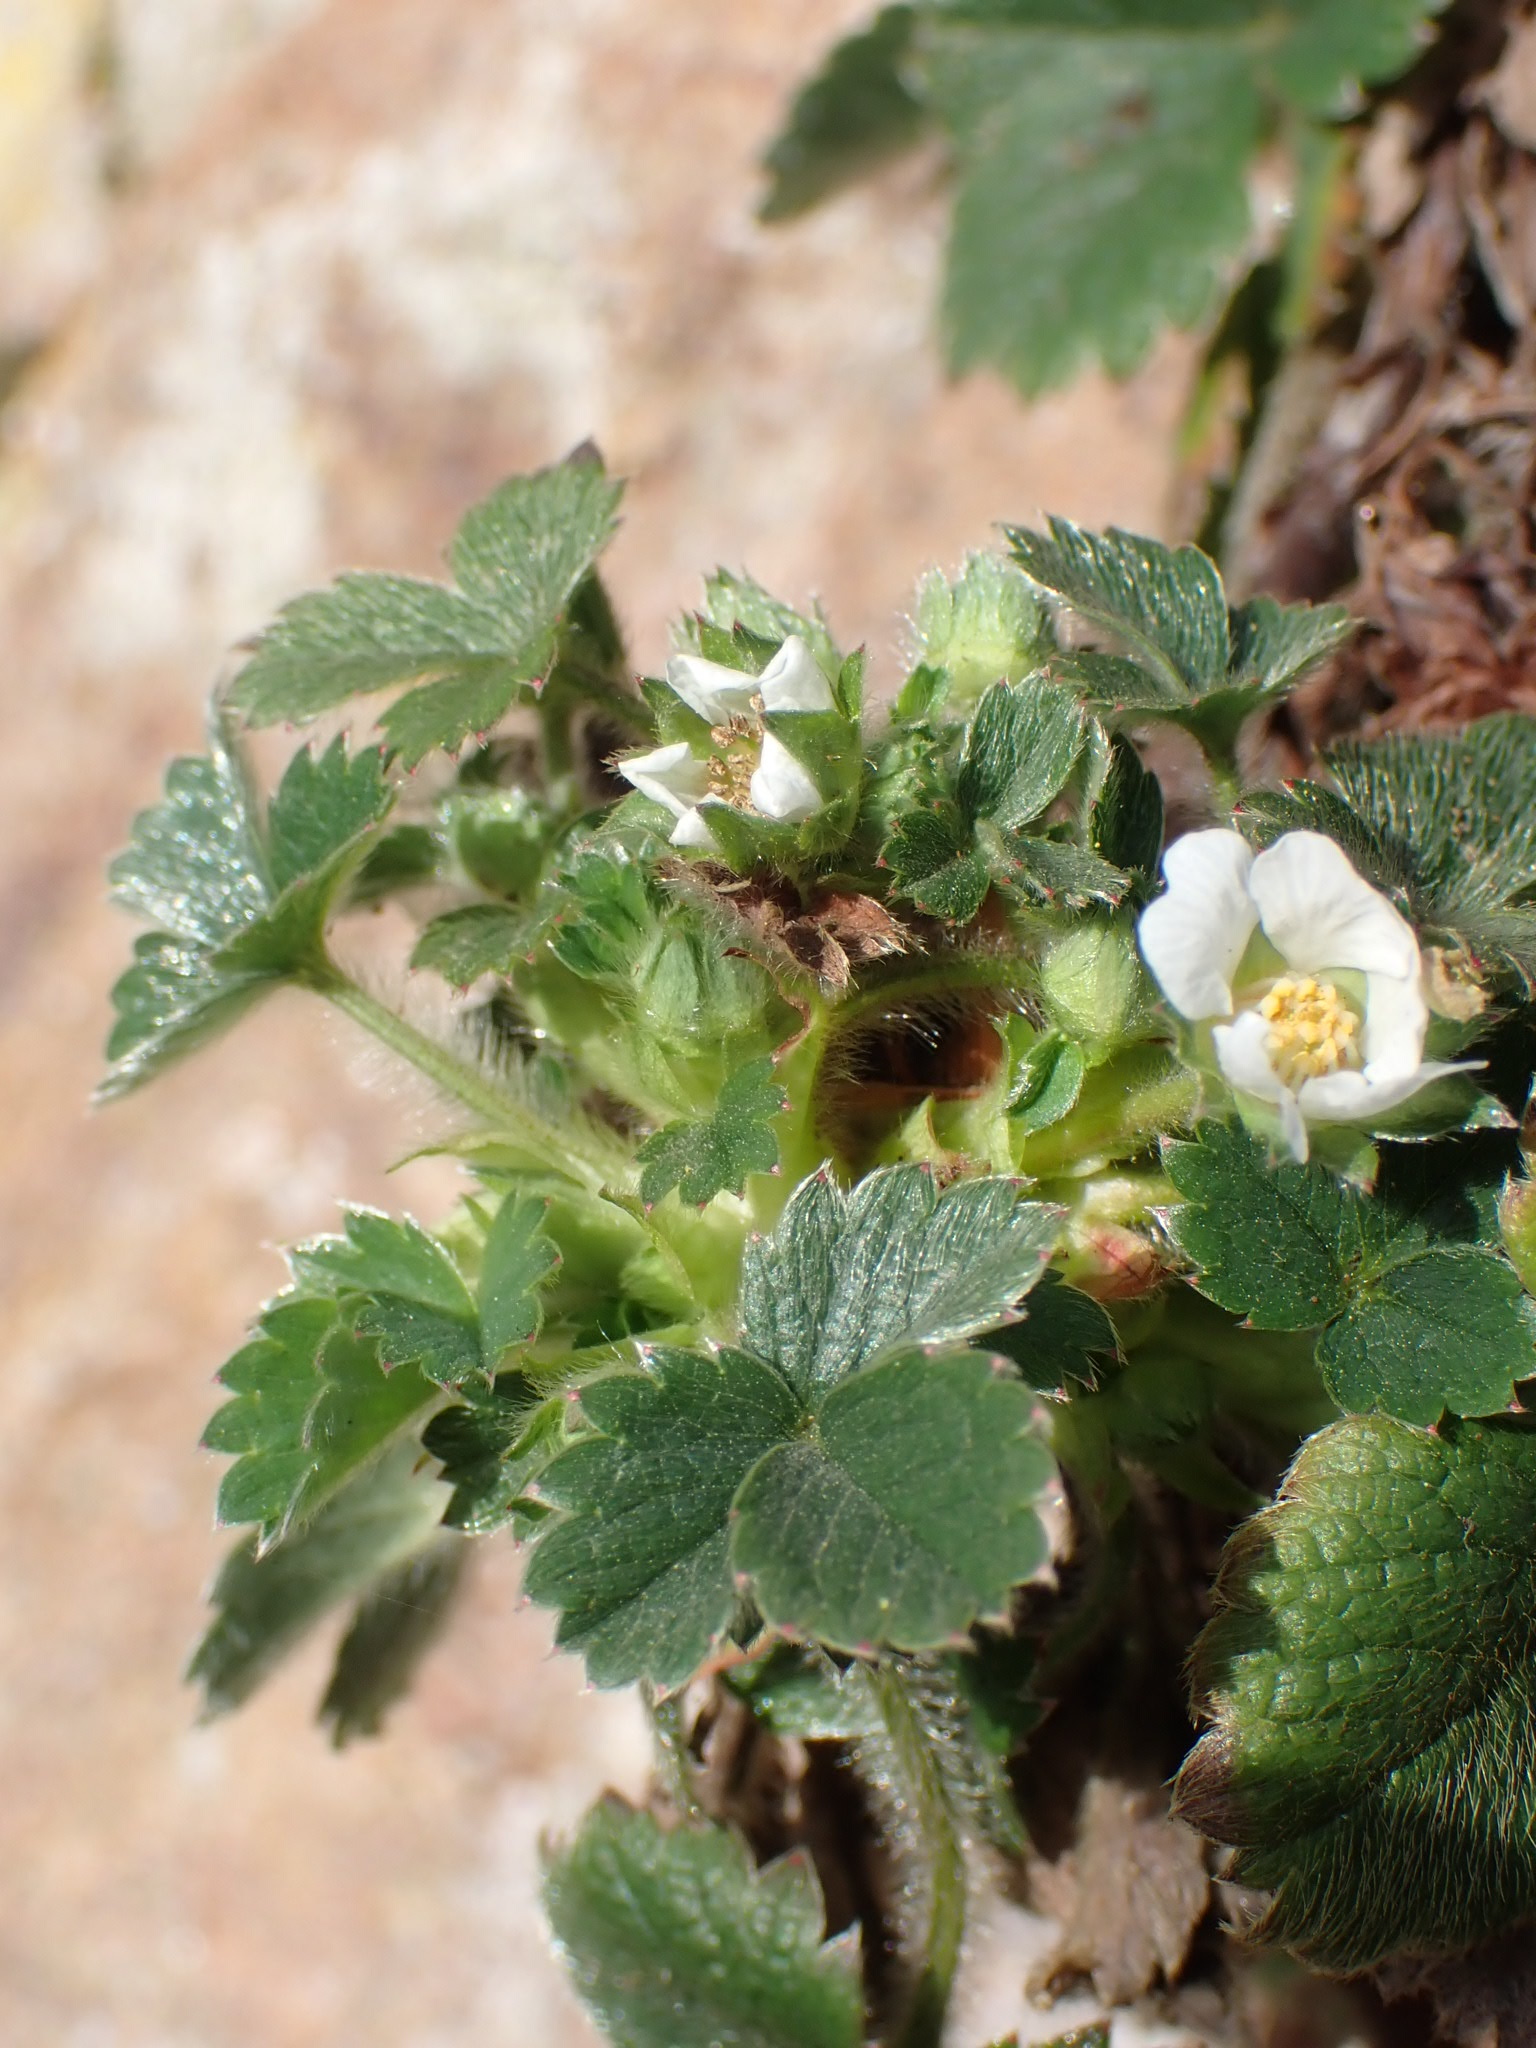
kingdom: Plantae
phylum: Tracheophyta
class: Magnoliopsida
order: Rosales
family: Rosaceae
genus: Potentilla
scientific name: Potentilla sterilis
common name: Barren strawberry
